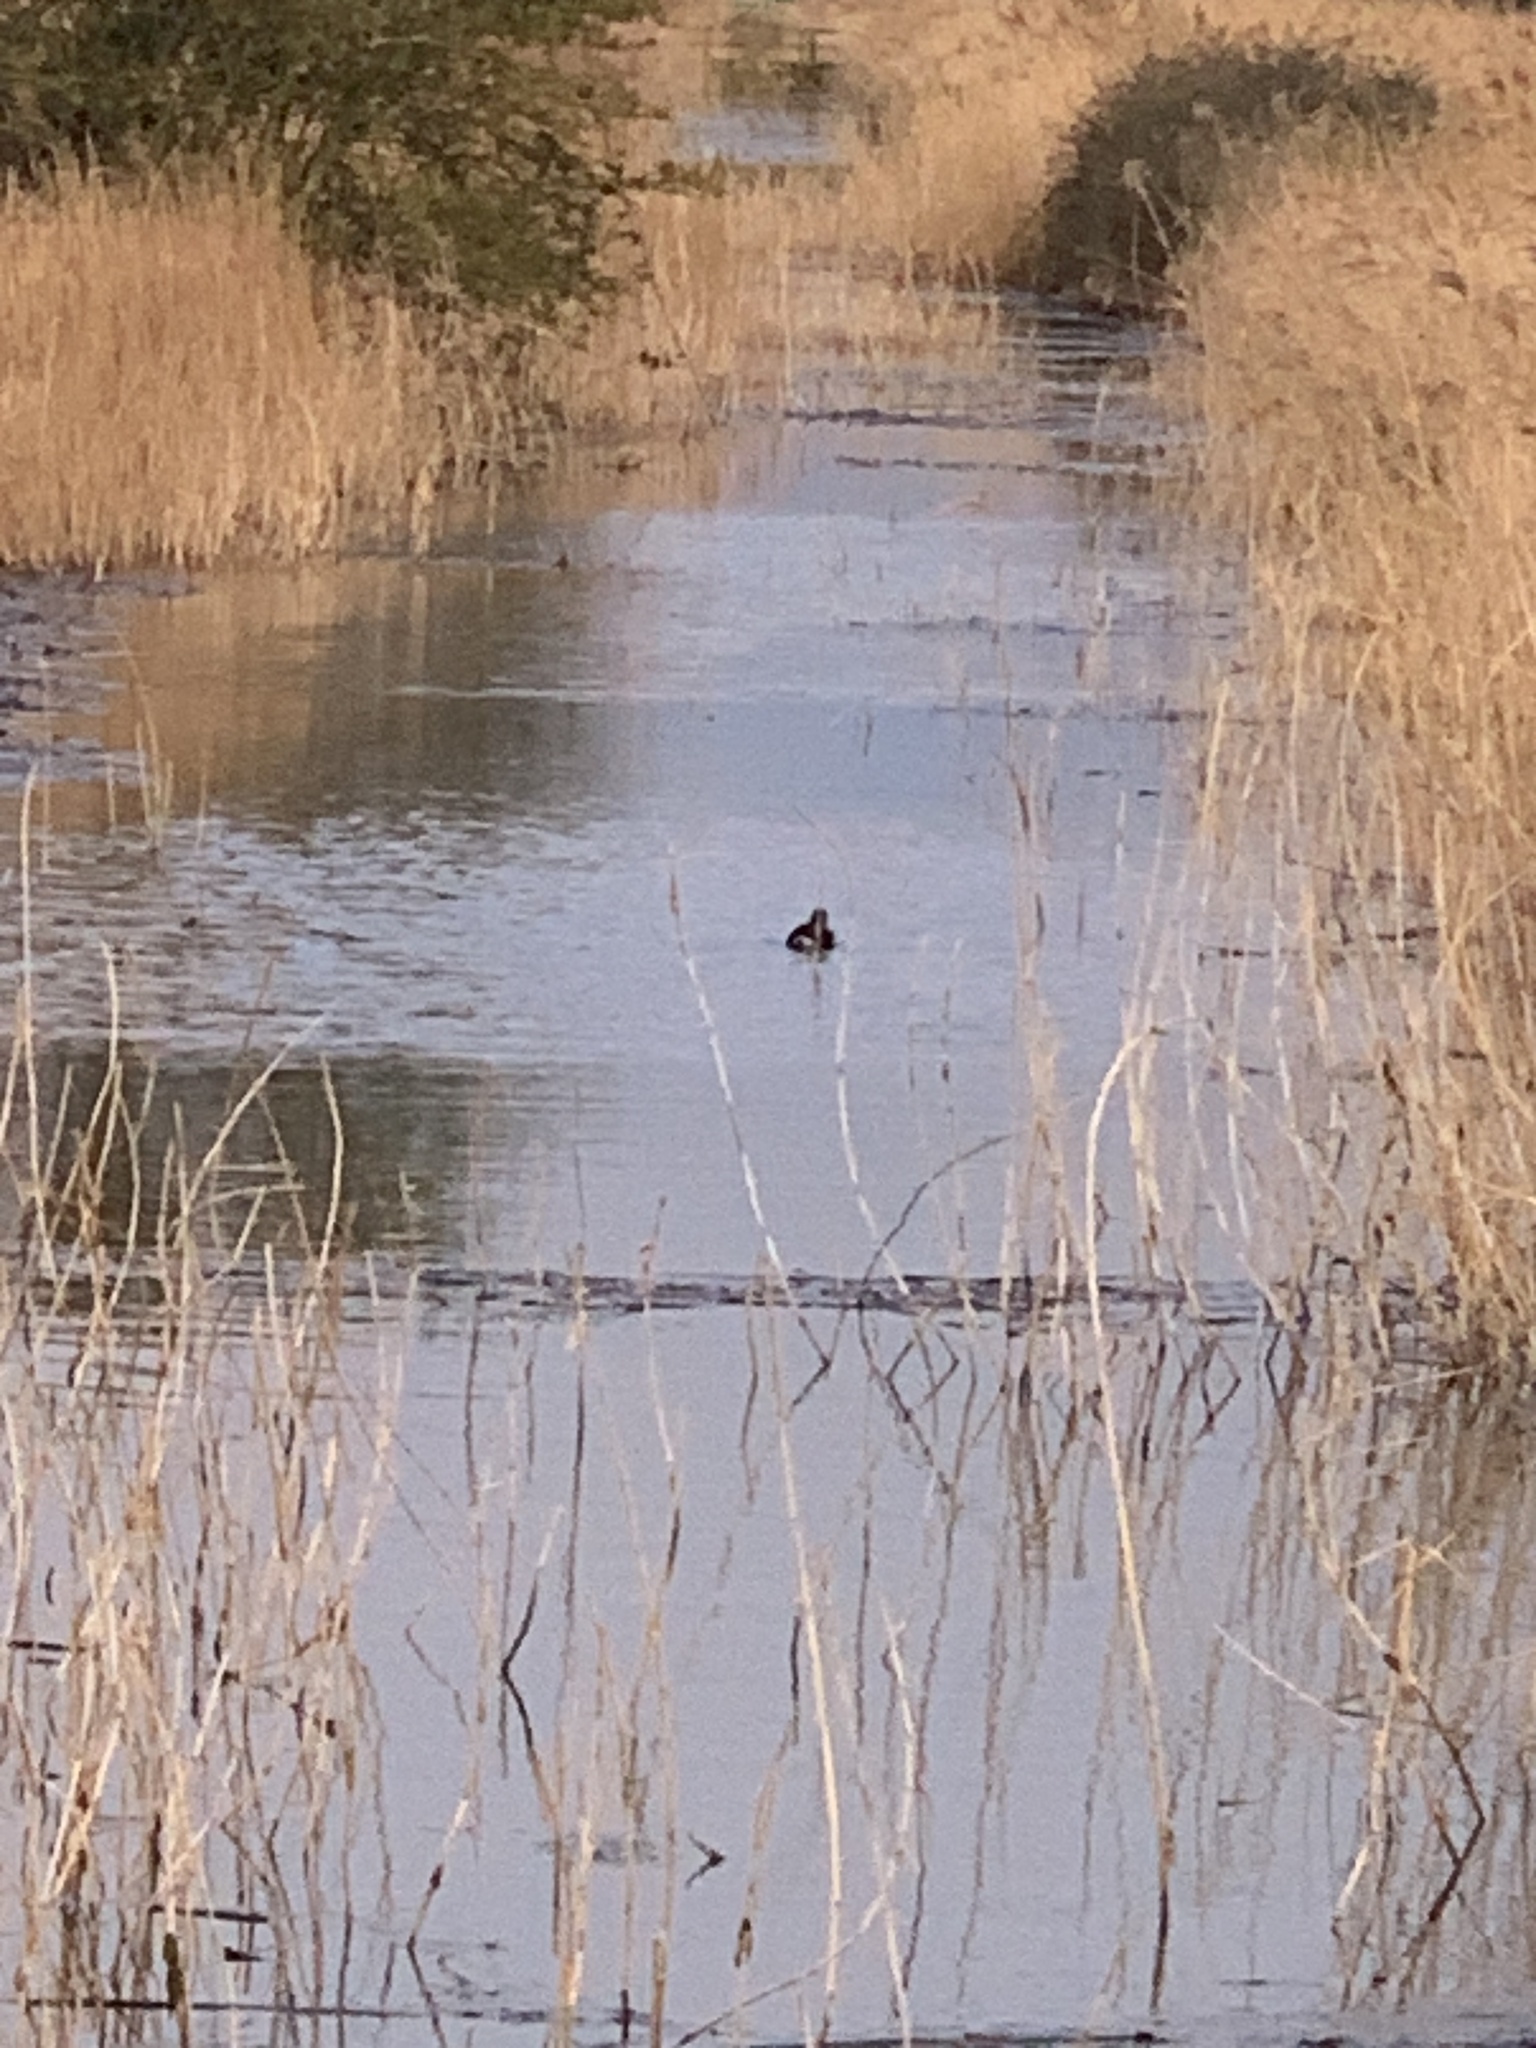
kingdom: Animalia
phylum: Chordata
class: Aves
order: Gruiformes
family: Rallidae
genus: Gallinula
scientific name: Gallinula chloropus
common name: Common moorhen
